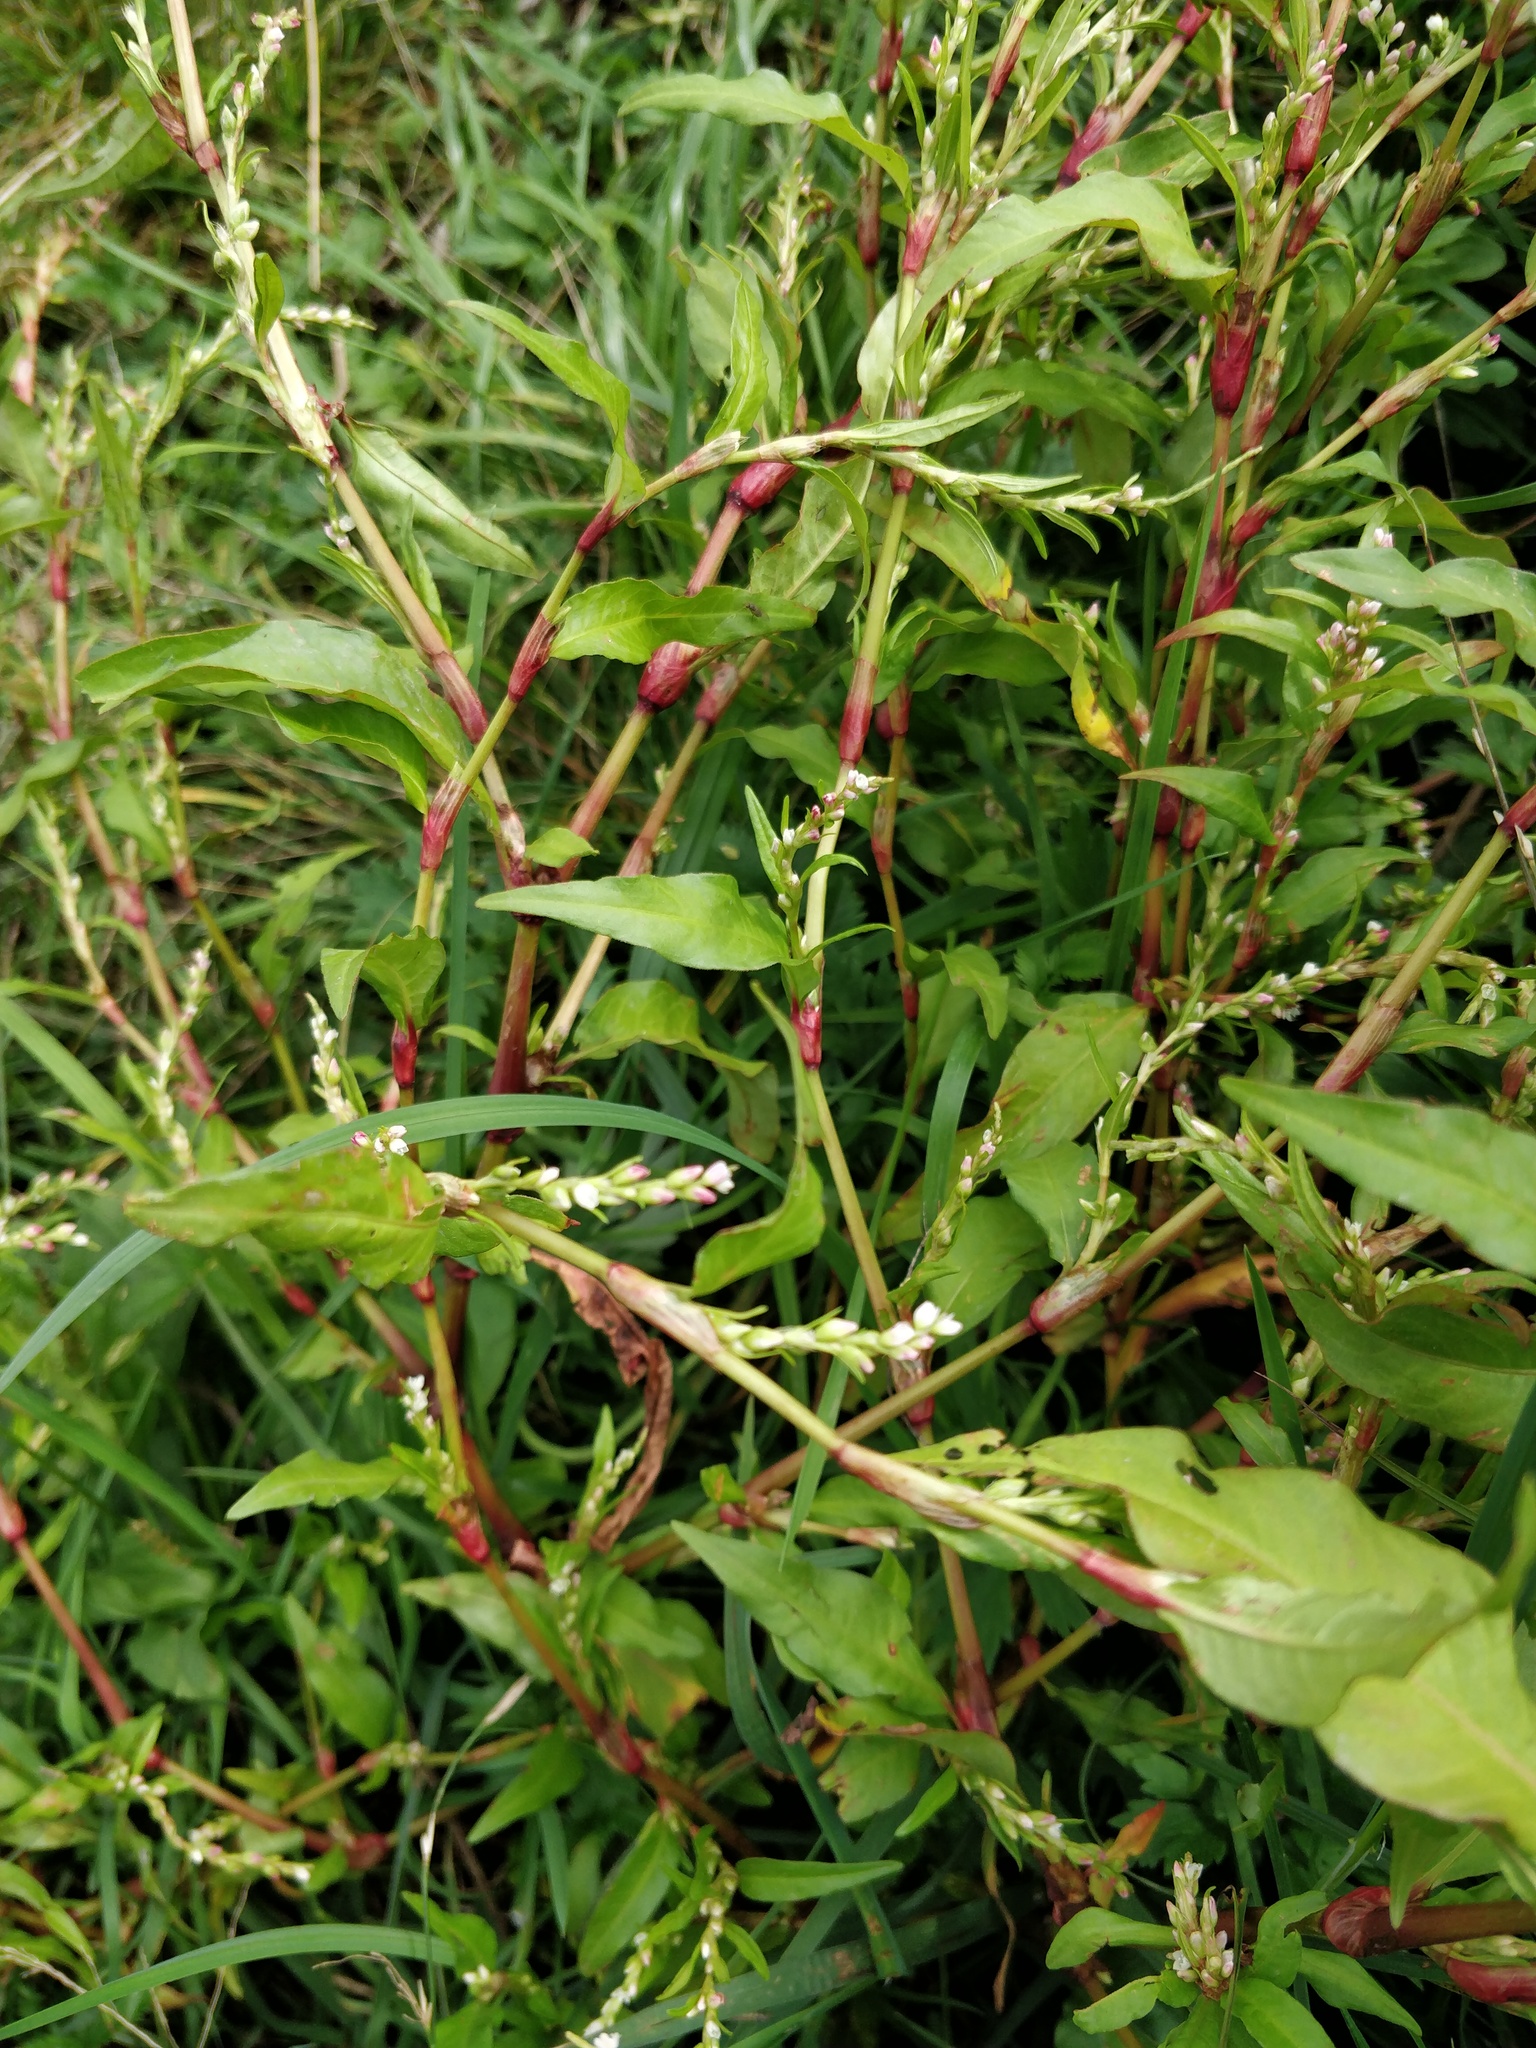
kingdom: Plantae
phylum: Tracheophyta
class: Magnoliopsida
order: Caryophyllales
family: Polygonaceae
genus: Persicaria
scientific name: Persicaria hydropiper
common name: Water-pepper
